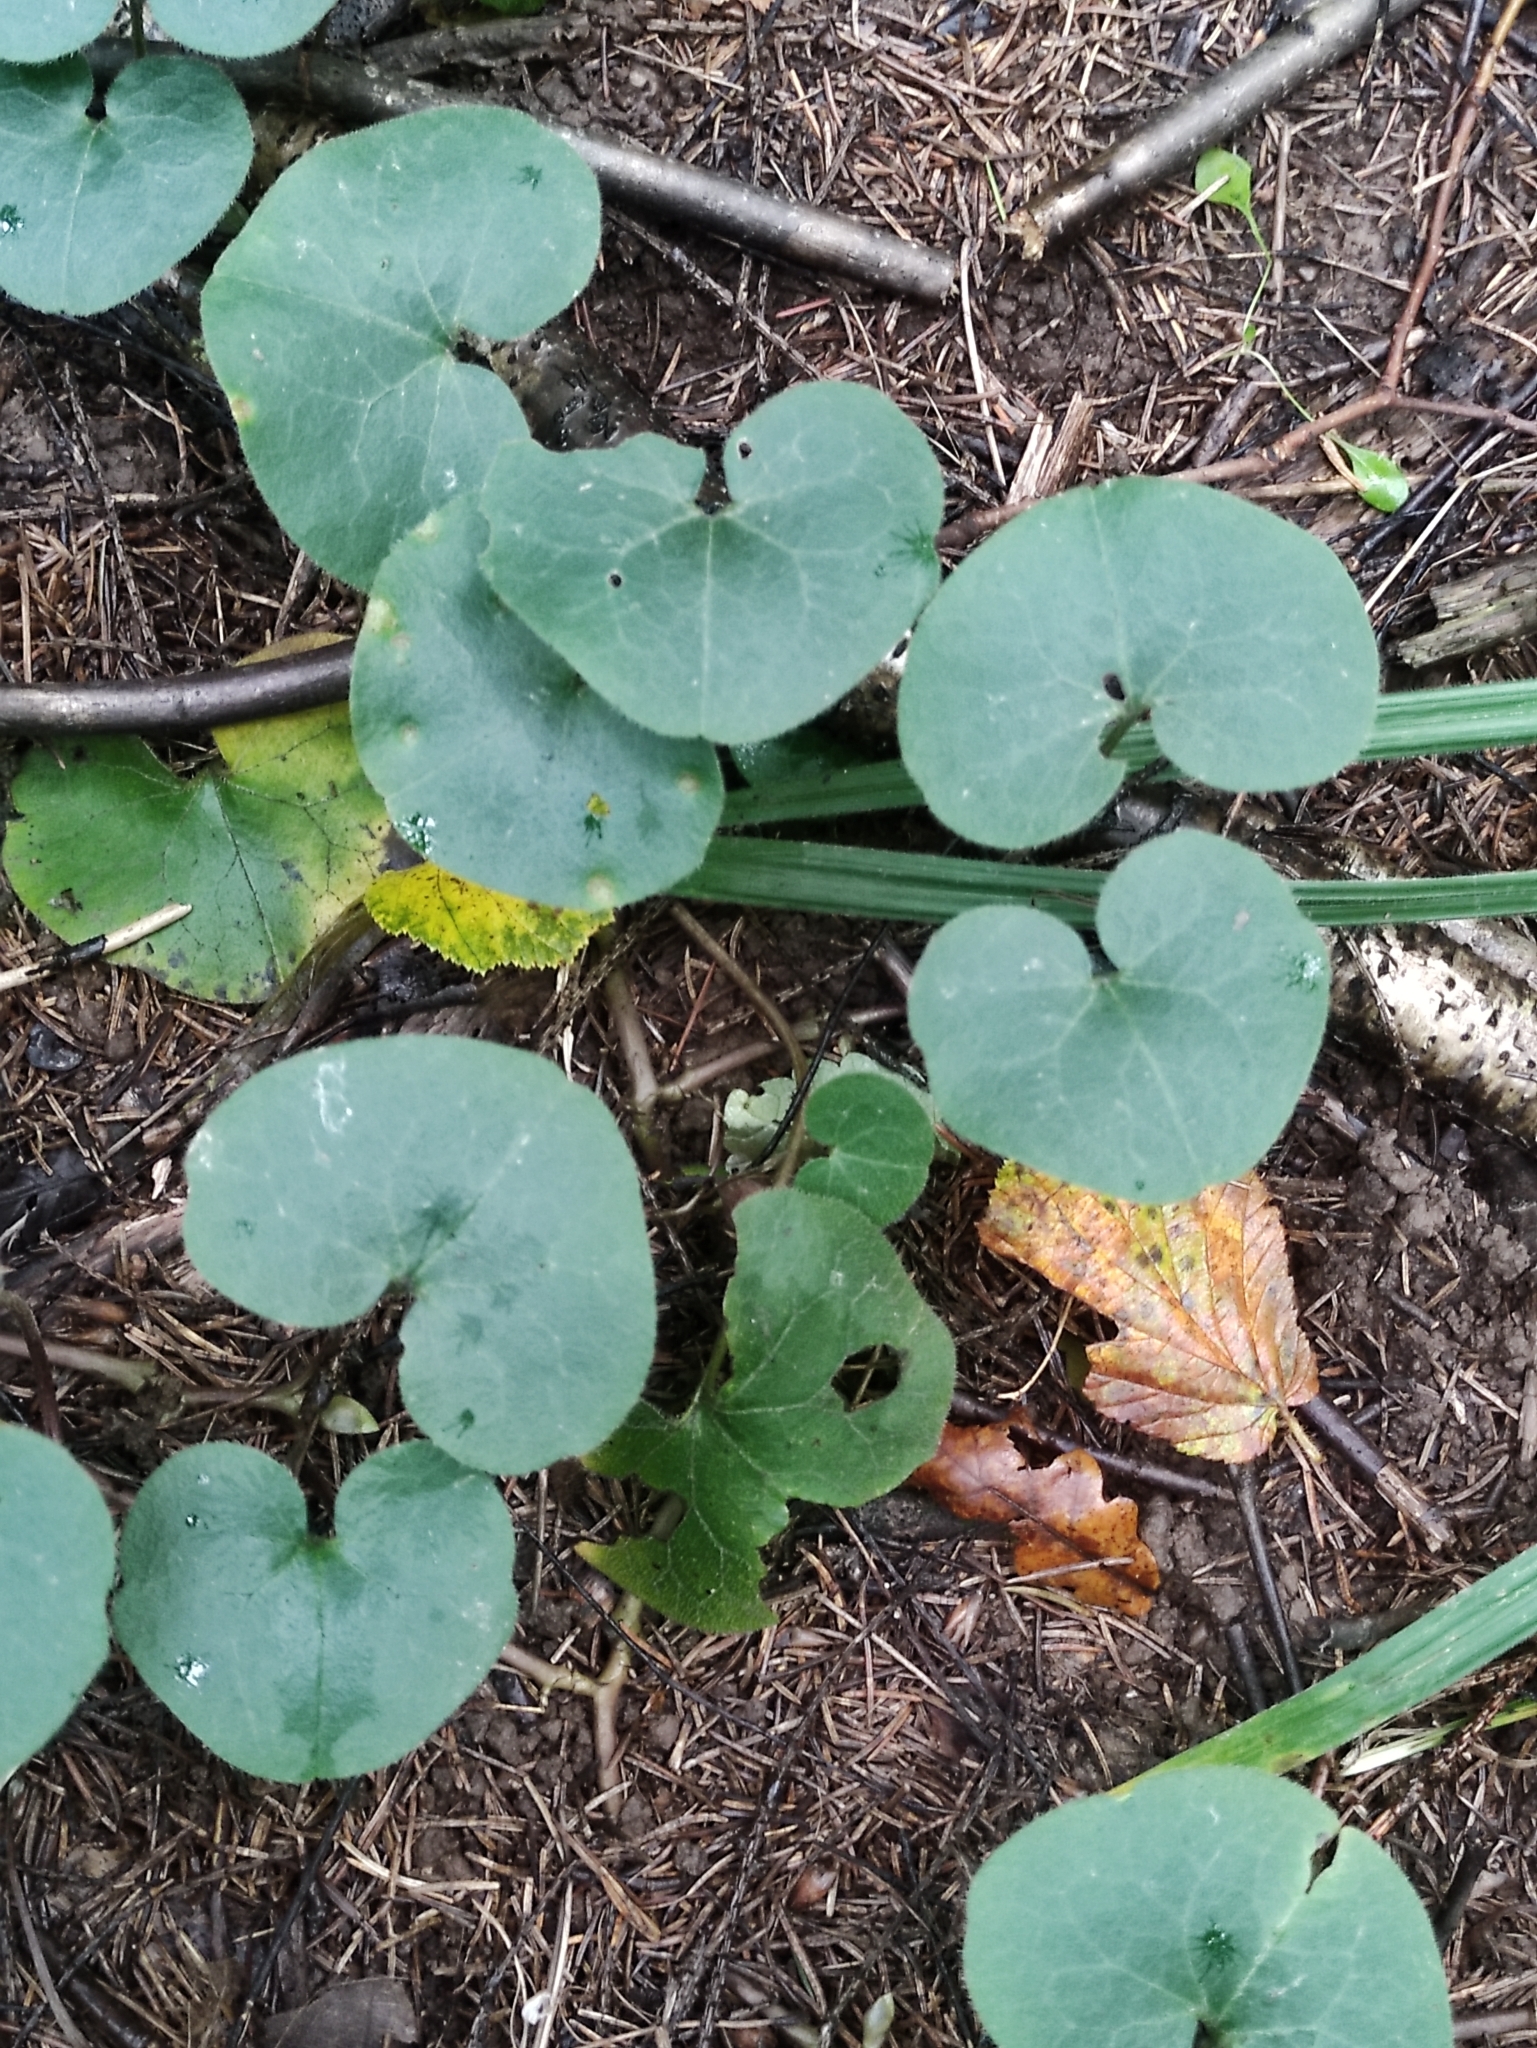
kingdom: Plantae
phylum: Tracheophyta
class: Magnoliopsida
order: Piperales
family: Aristolochiaceae
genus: Asarum
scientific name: Asarum europaeum
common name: Asarabacca
